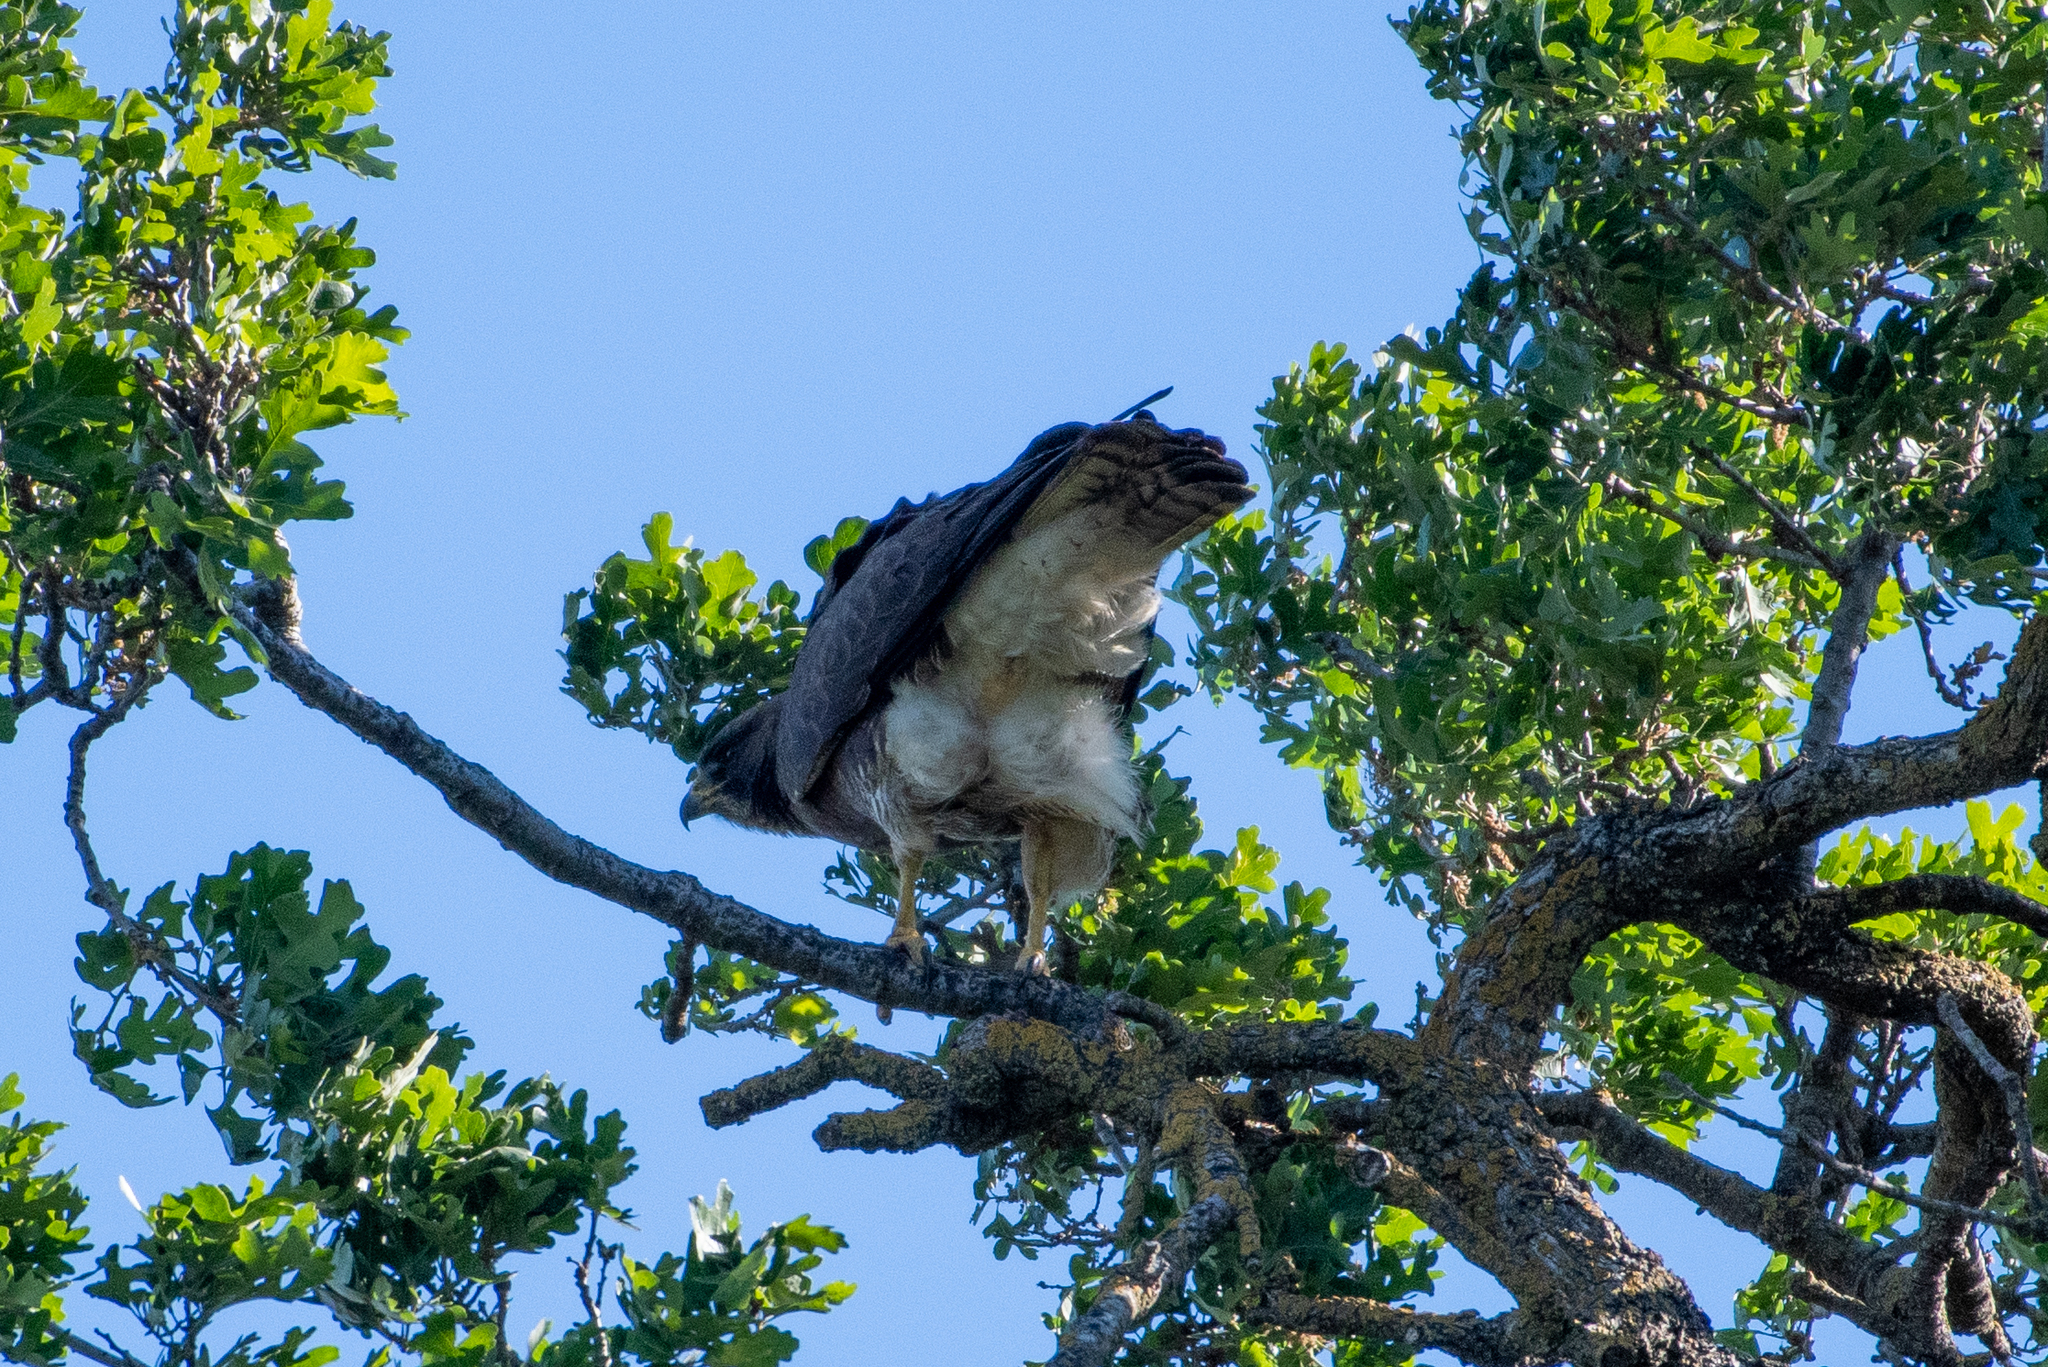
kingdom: Animalia
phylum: Chordata
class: Aves
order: Accipitriformes
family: Accipitridae
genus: Buteo
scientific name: Buteo swainsoni
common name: Swainson's hawk
